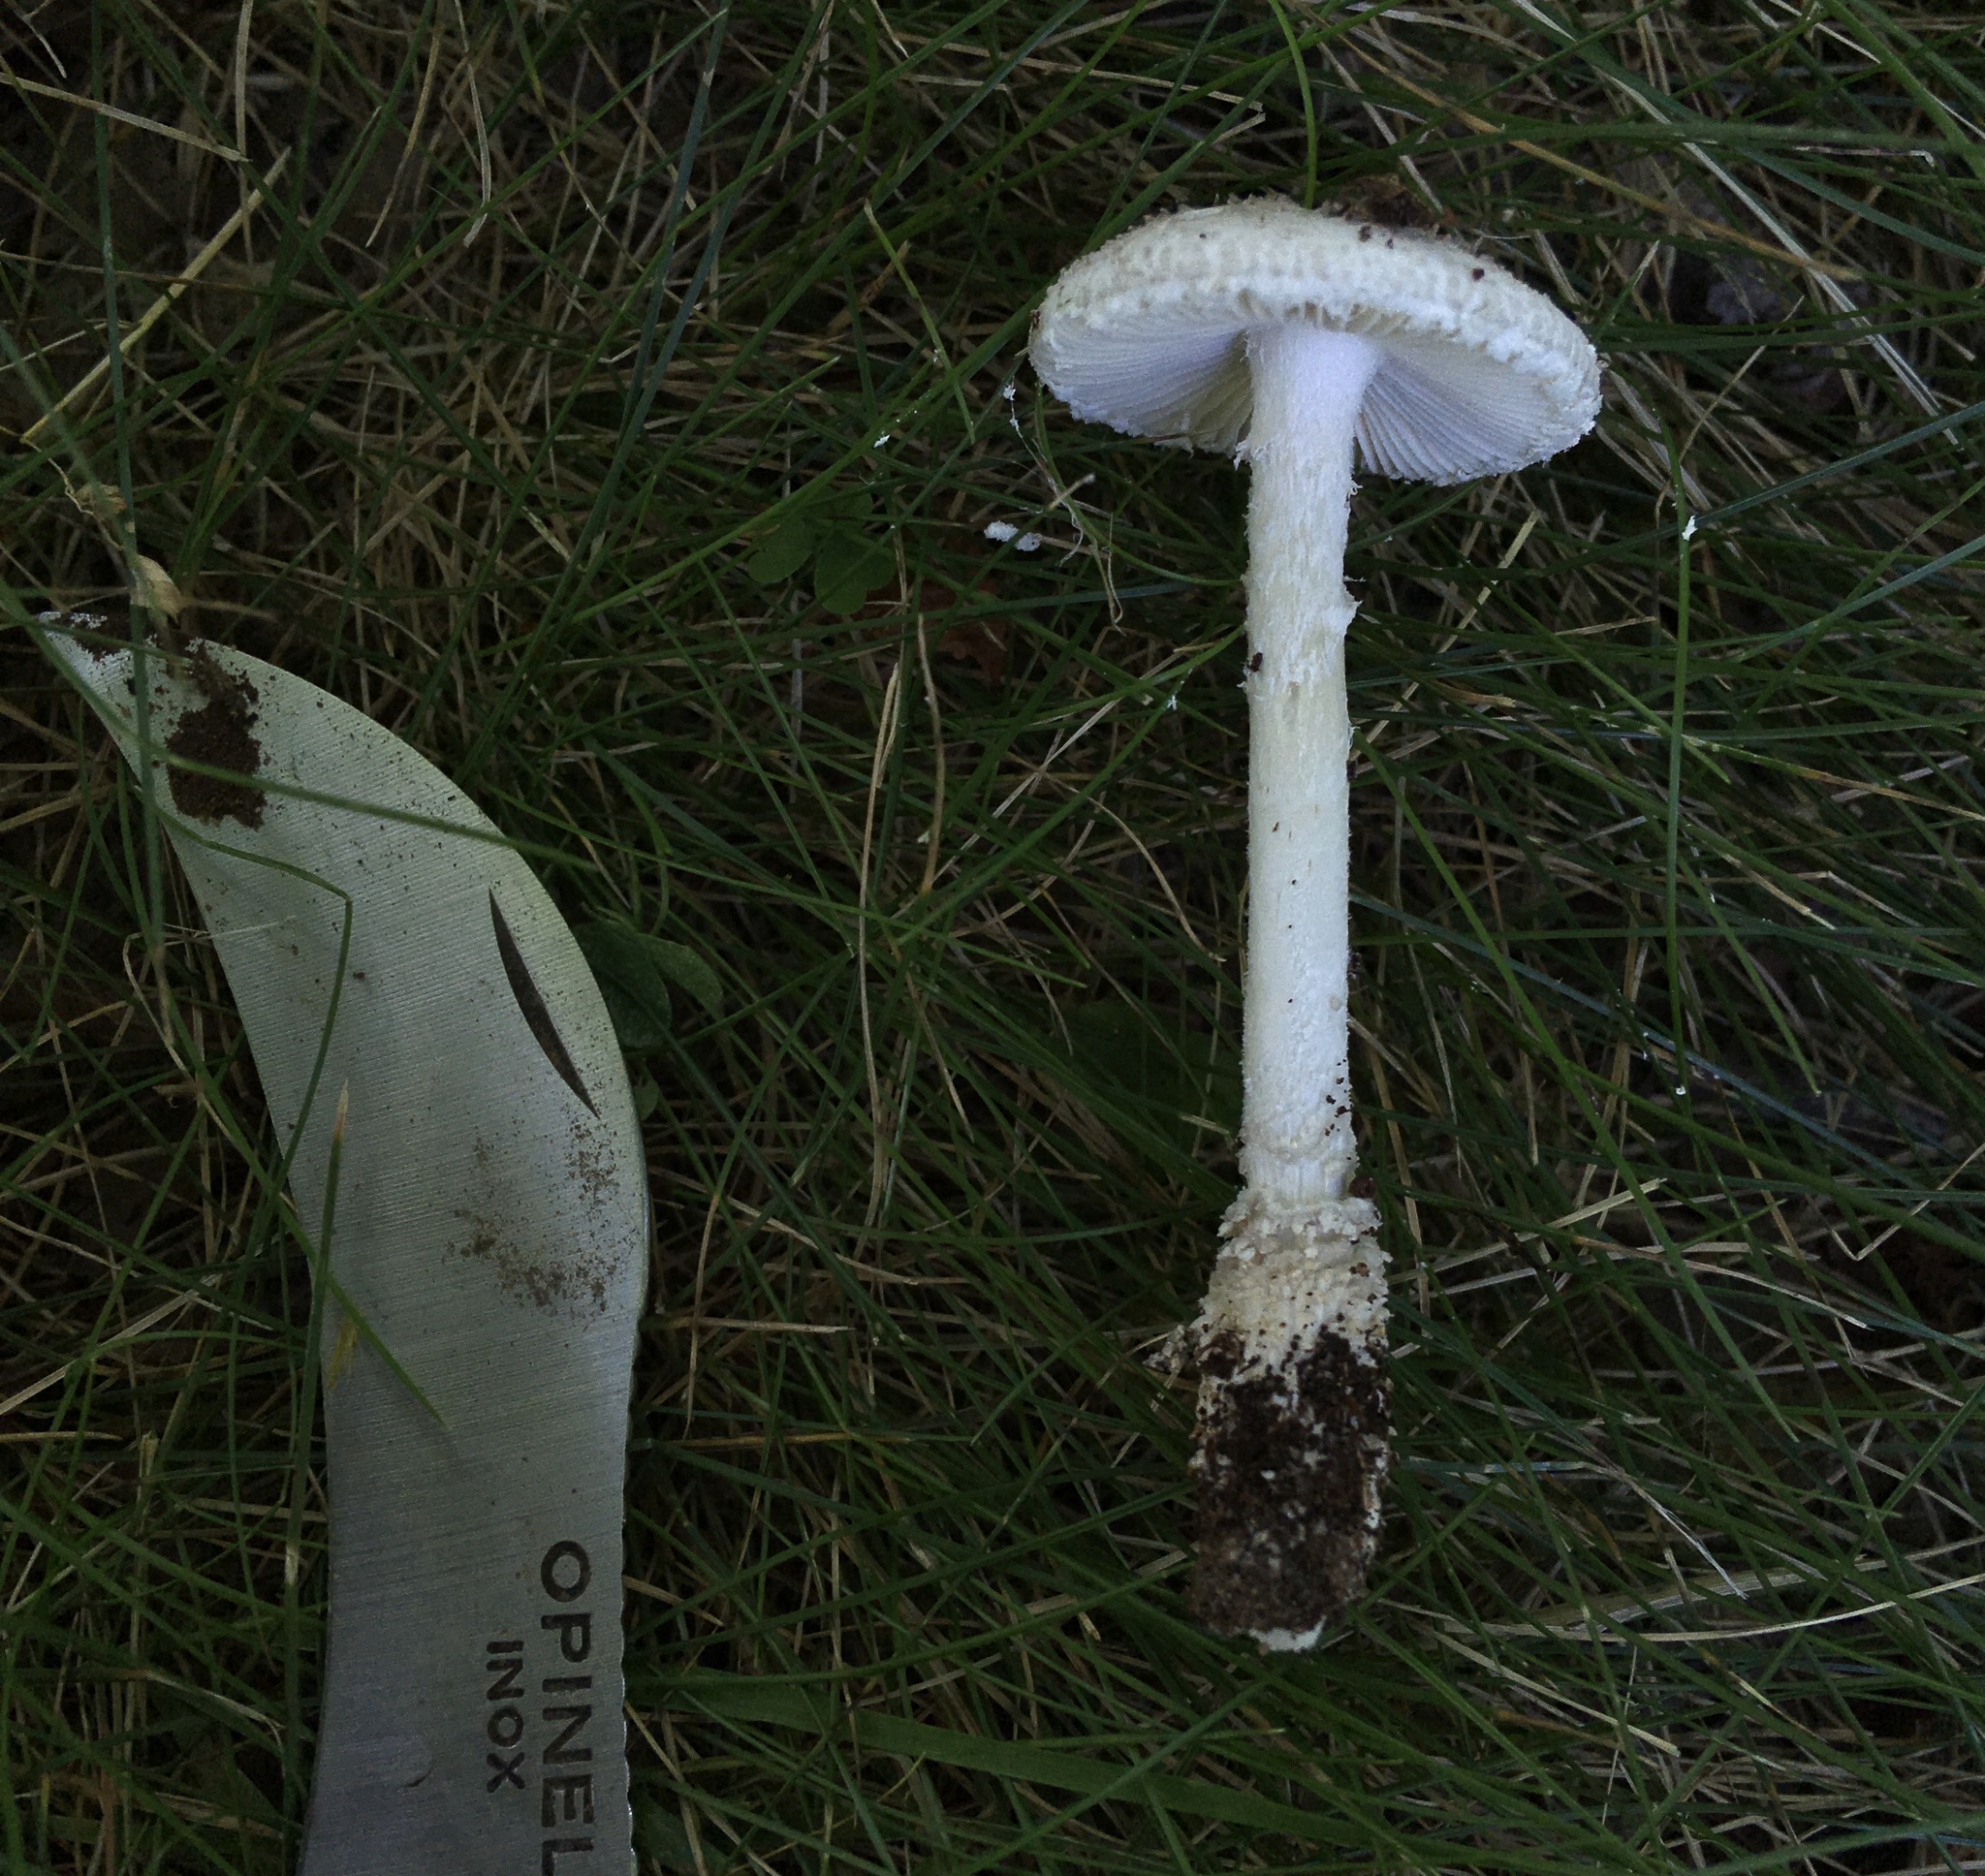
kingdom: Fungi
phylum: Basidiomycota
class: Agaricomycetes
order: Agaricales
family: Amanitaceae
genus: Amanita
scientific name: Amanita onusta
